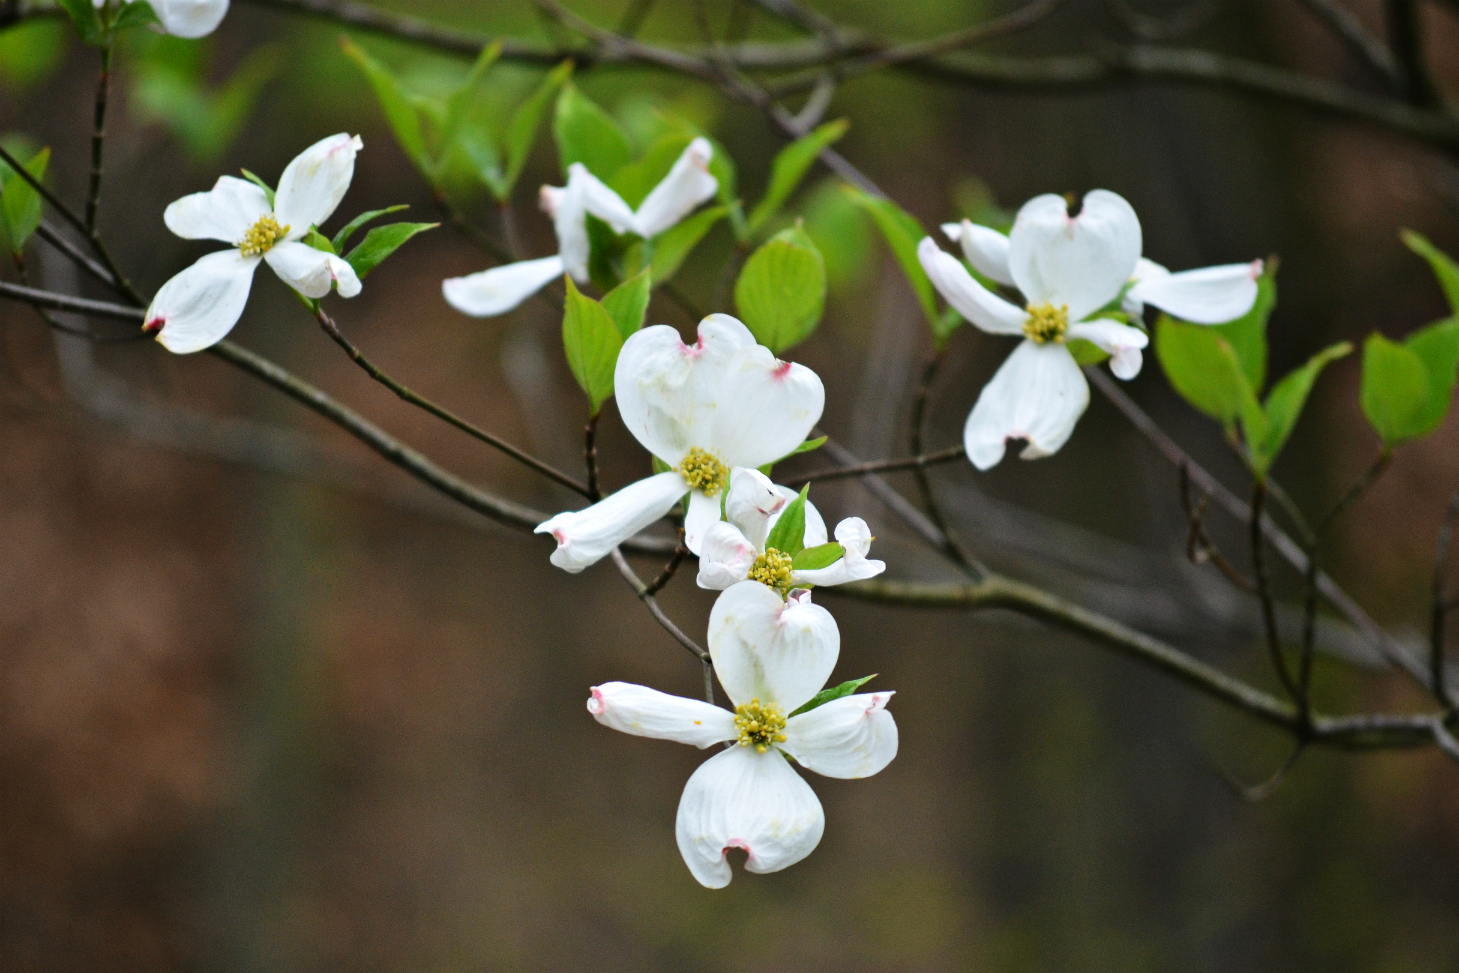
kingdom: Plantae
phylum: Tracheophyta
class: Magnoliopsida
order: Cornales
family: Cornaceae
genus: Cornus
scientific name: Cornus florida
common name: Flowering dogwood
